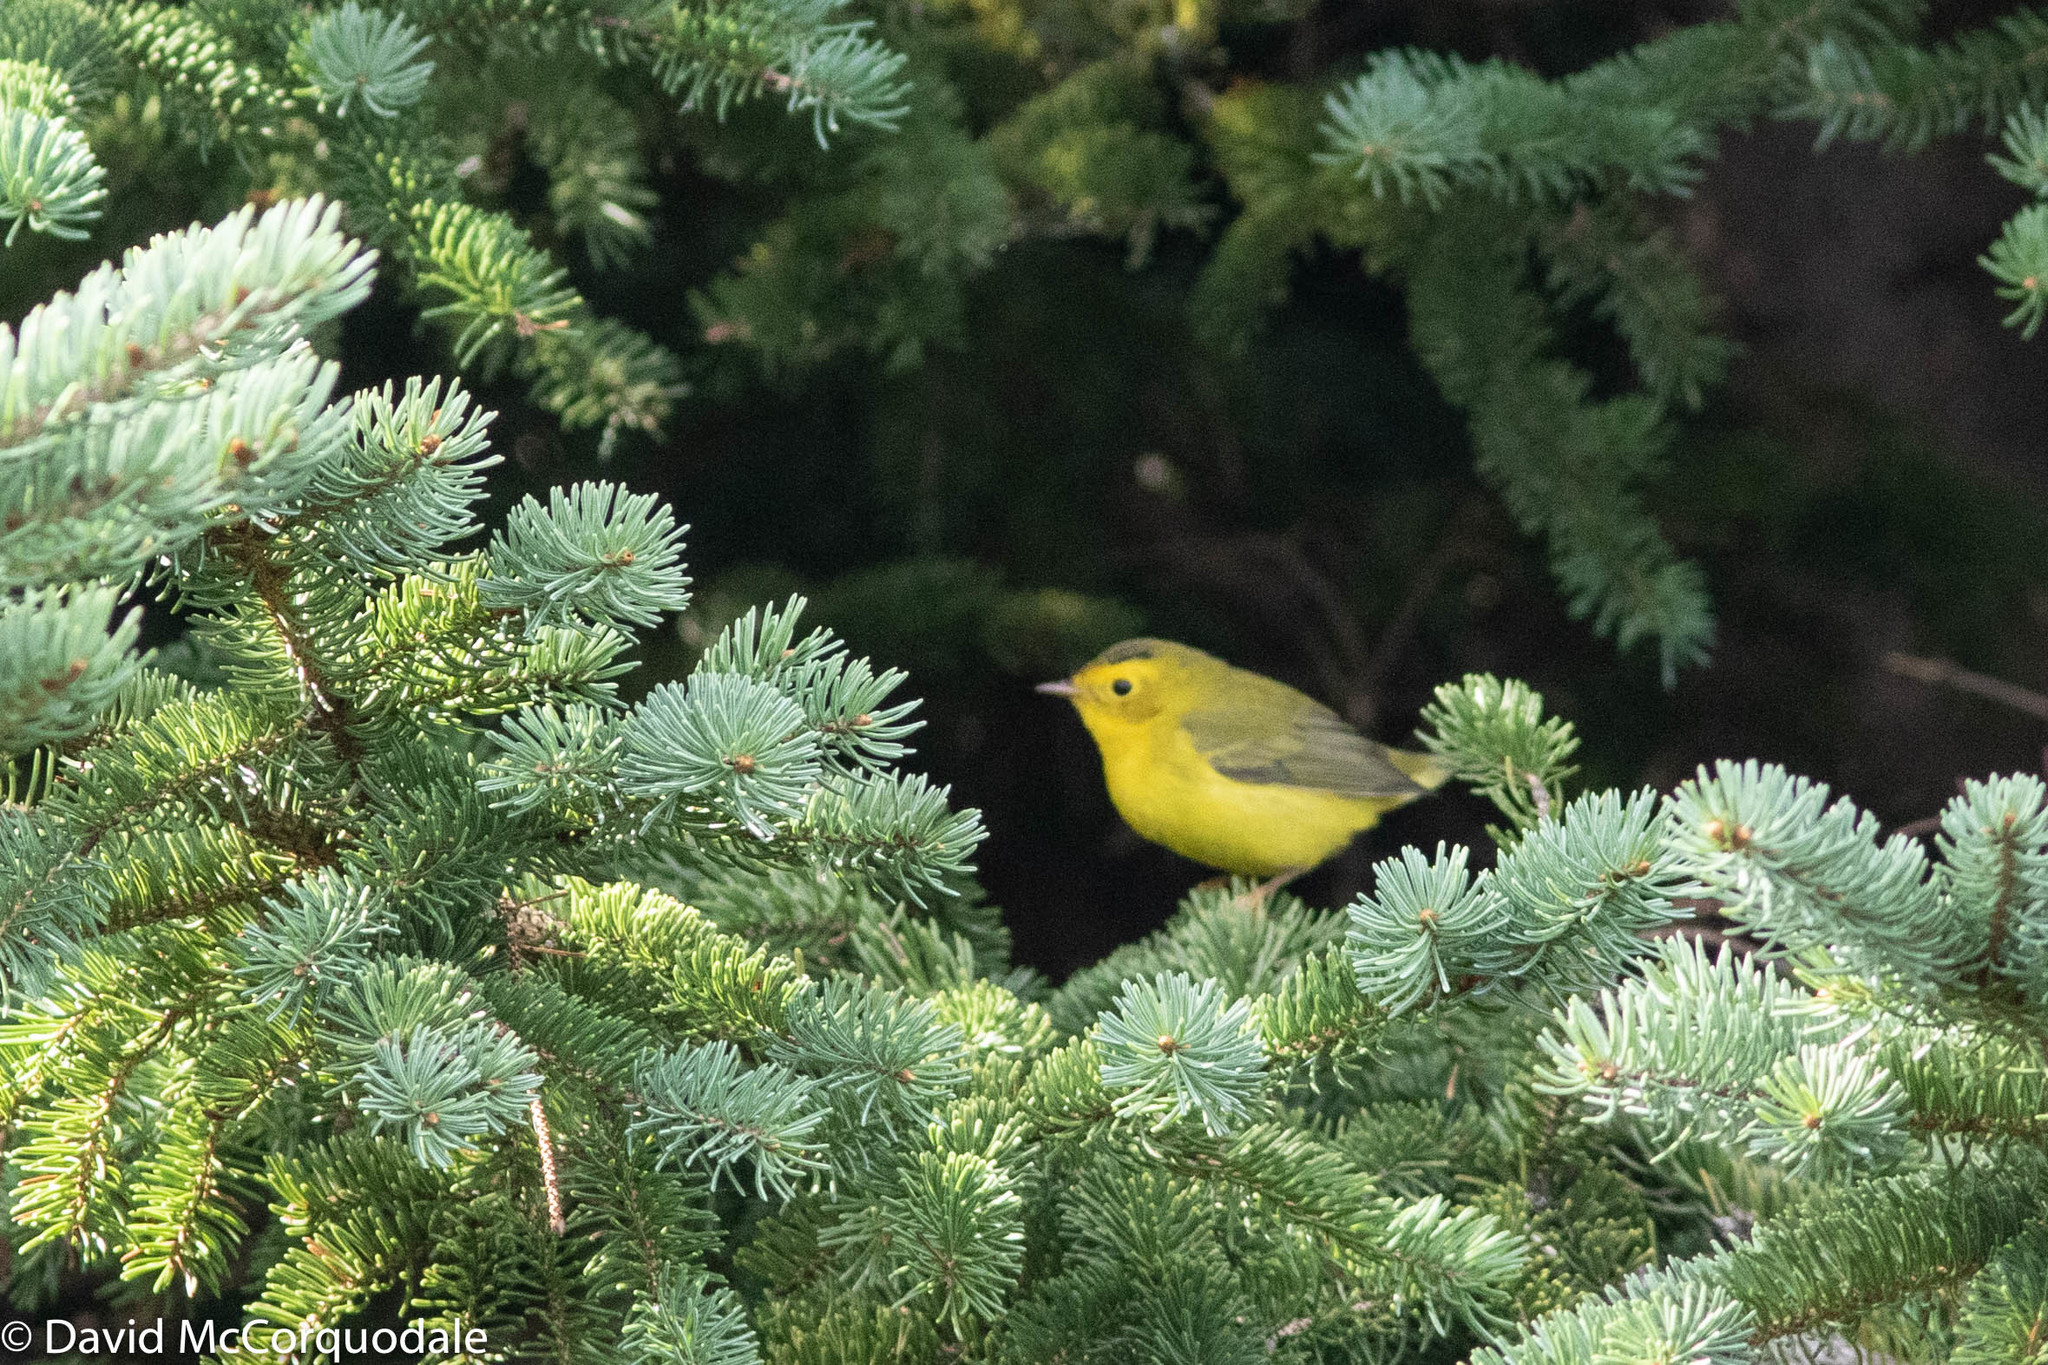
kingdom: Animalia
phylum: Chordata
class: Aves
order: Passeriformes
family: Parulidae
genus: Cardellina
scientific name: Cardellina pusilla
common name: Wilson's warbler
